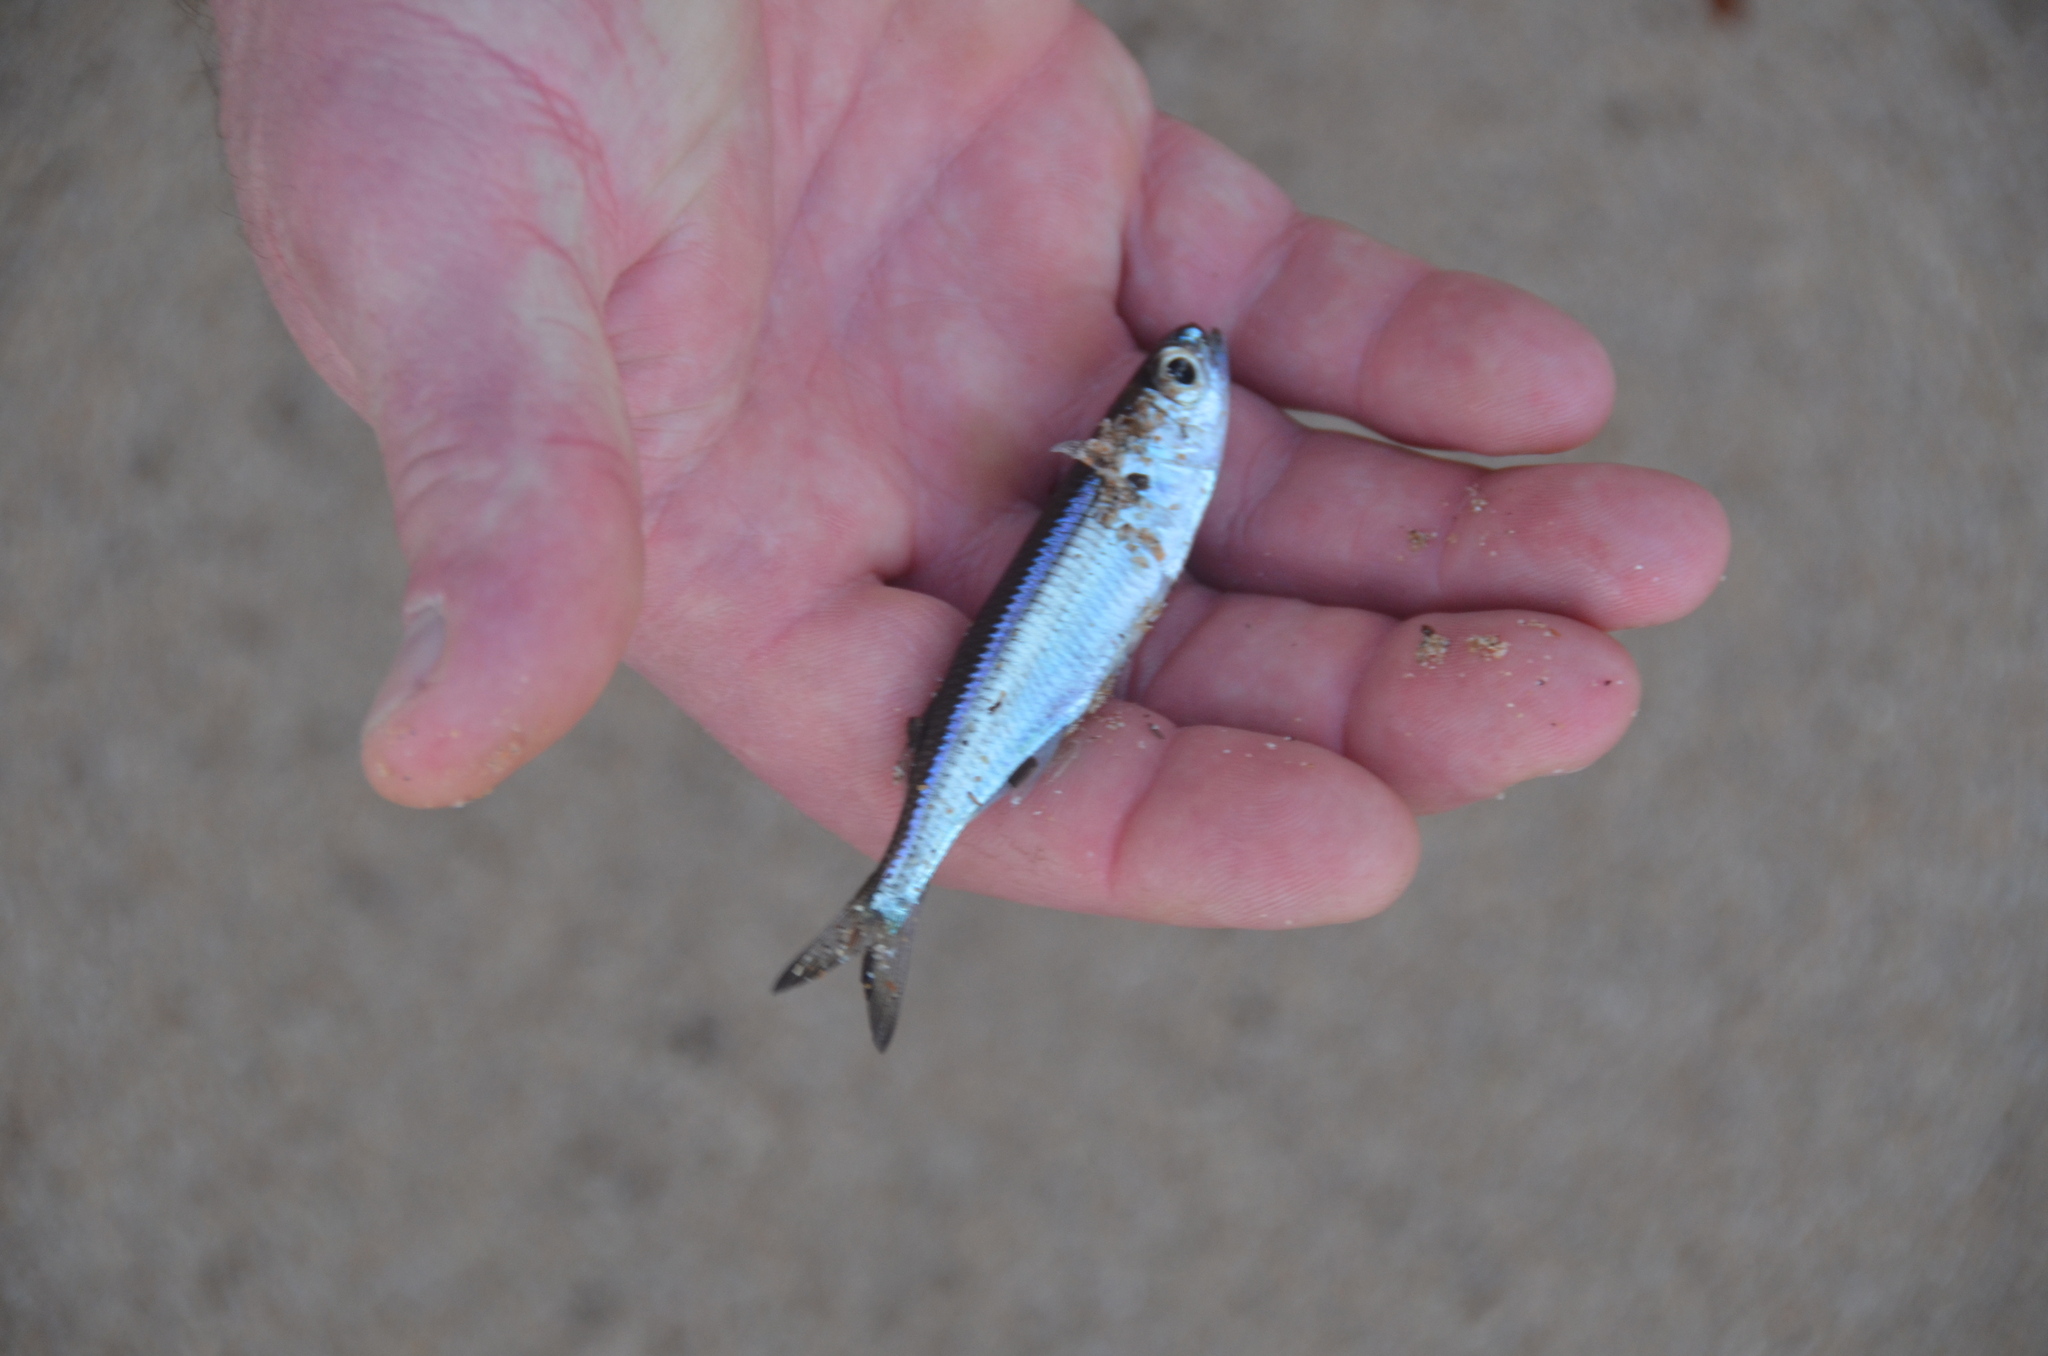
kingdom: Animalia
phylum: Chordata
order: Atheriniformes
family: Atherinidae
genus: Atherinomorus
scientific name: Atherinomorus insularum
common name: Hardyhead silverside
